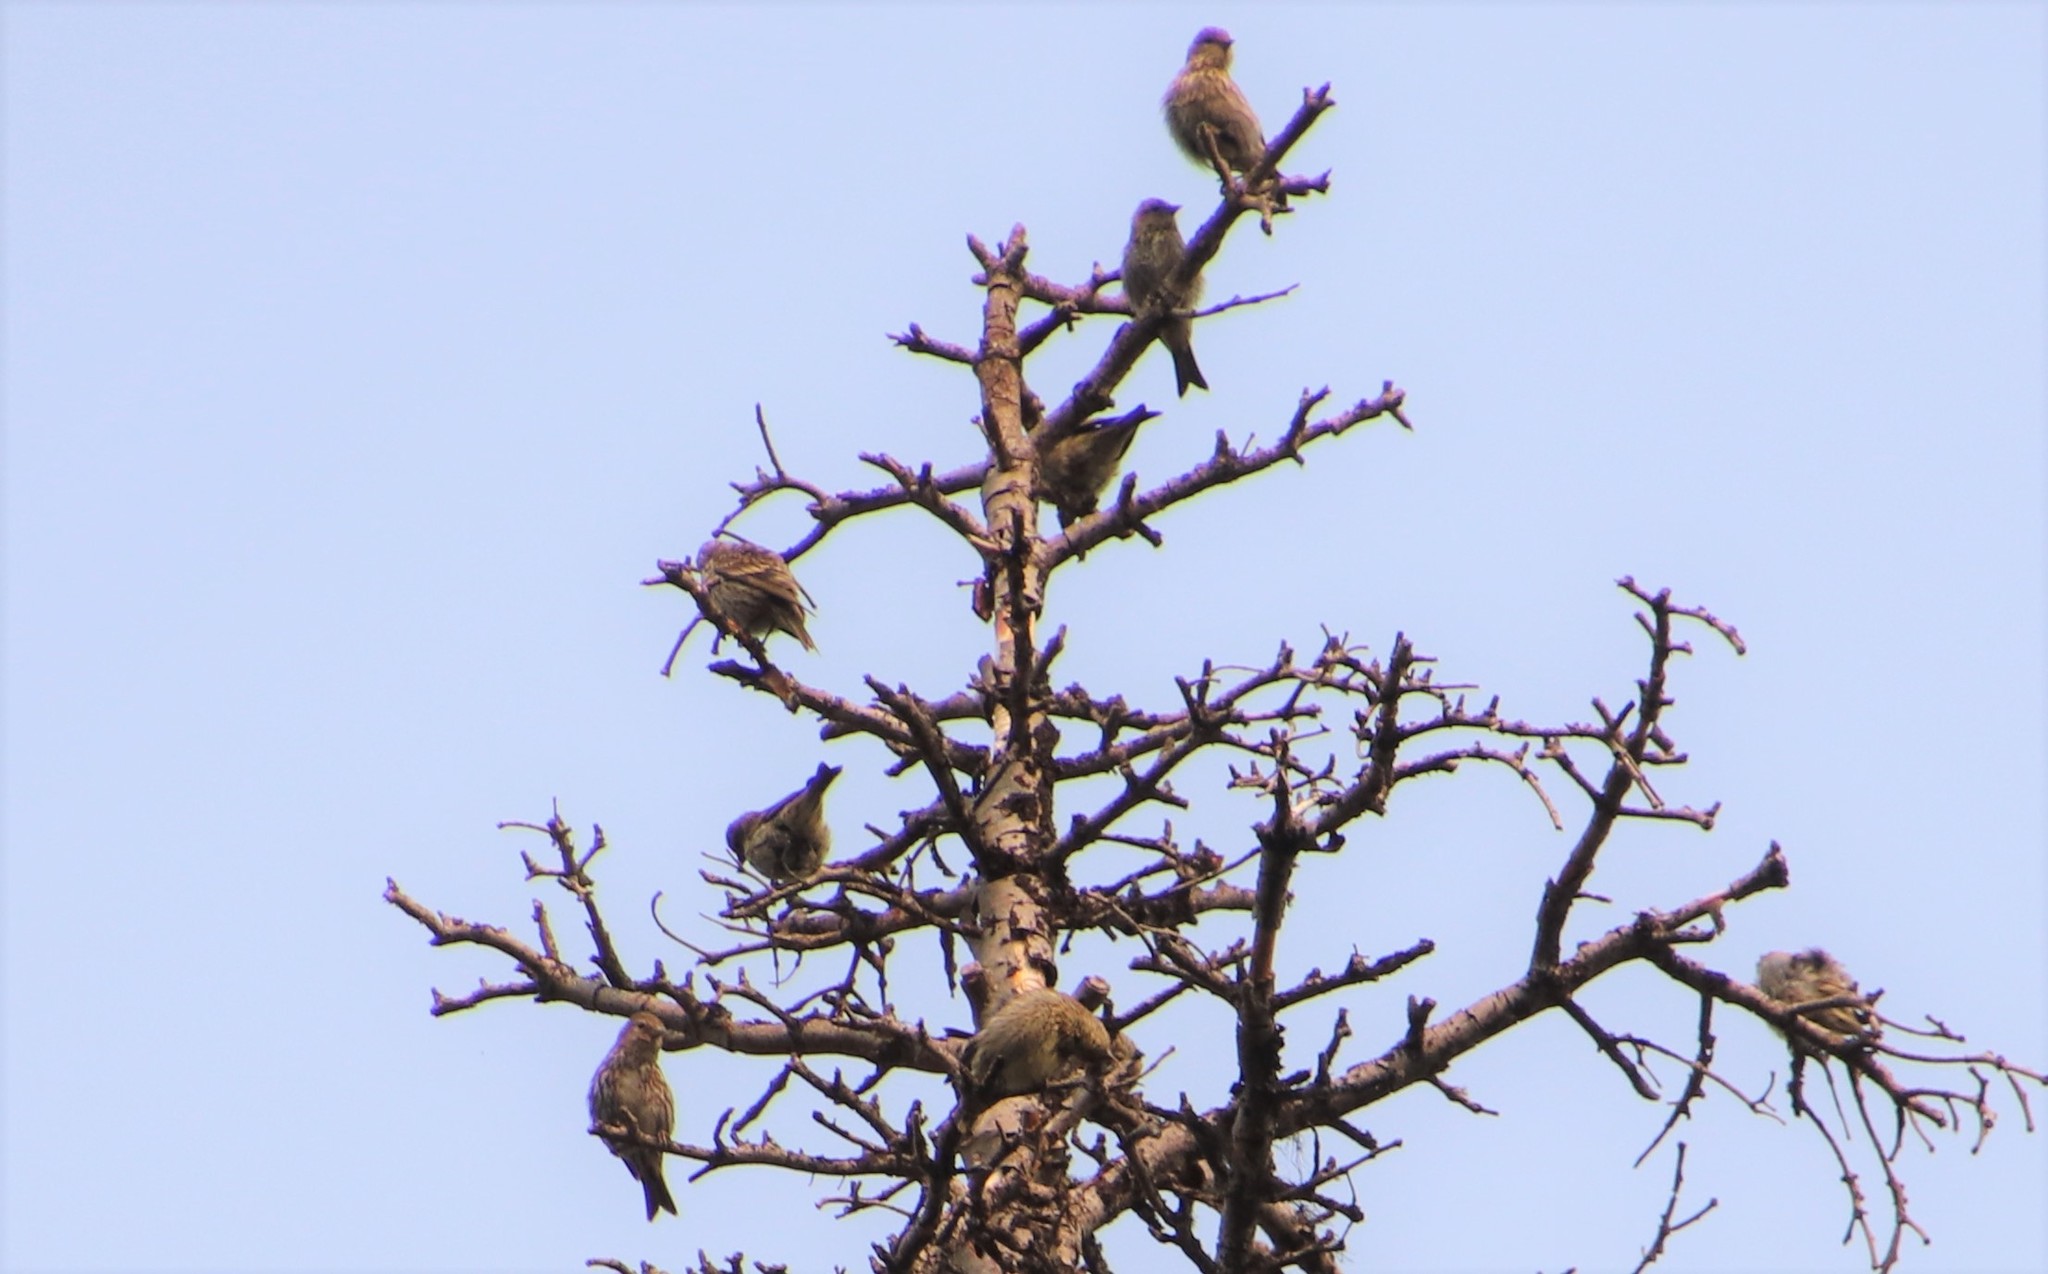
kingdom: Animalia
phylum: Chordata
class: Aves
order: Passeriformes
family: Fringillidae
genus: Spinus
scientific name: Spinus pinus
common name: Pine siskin
